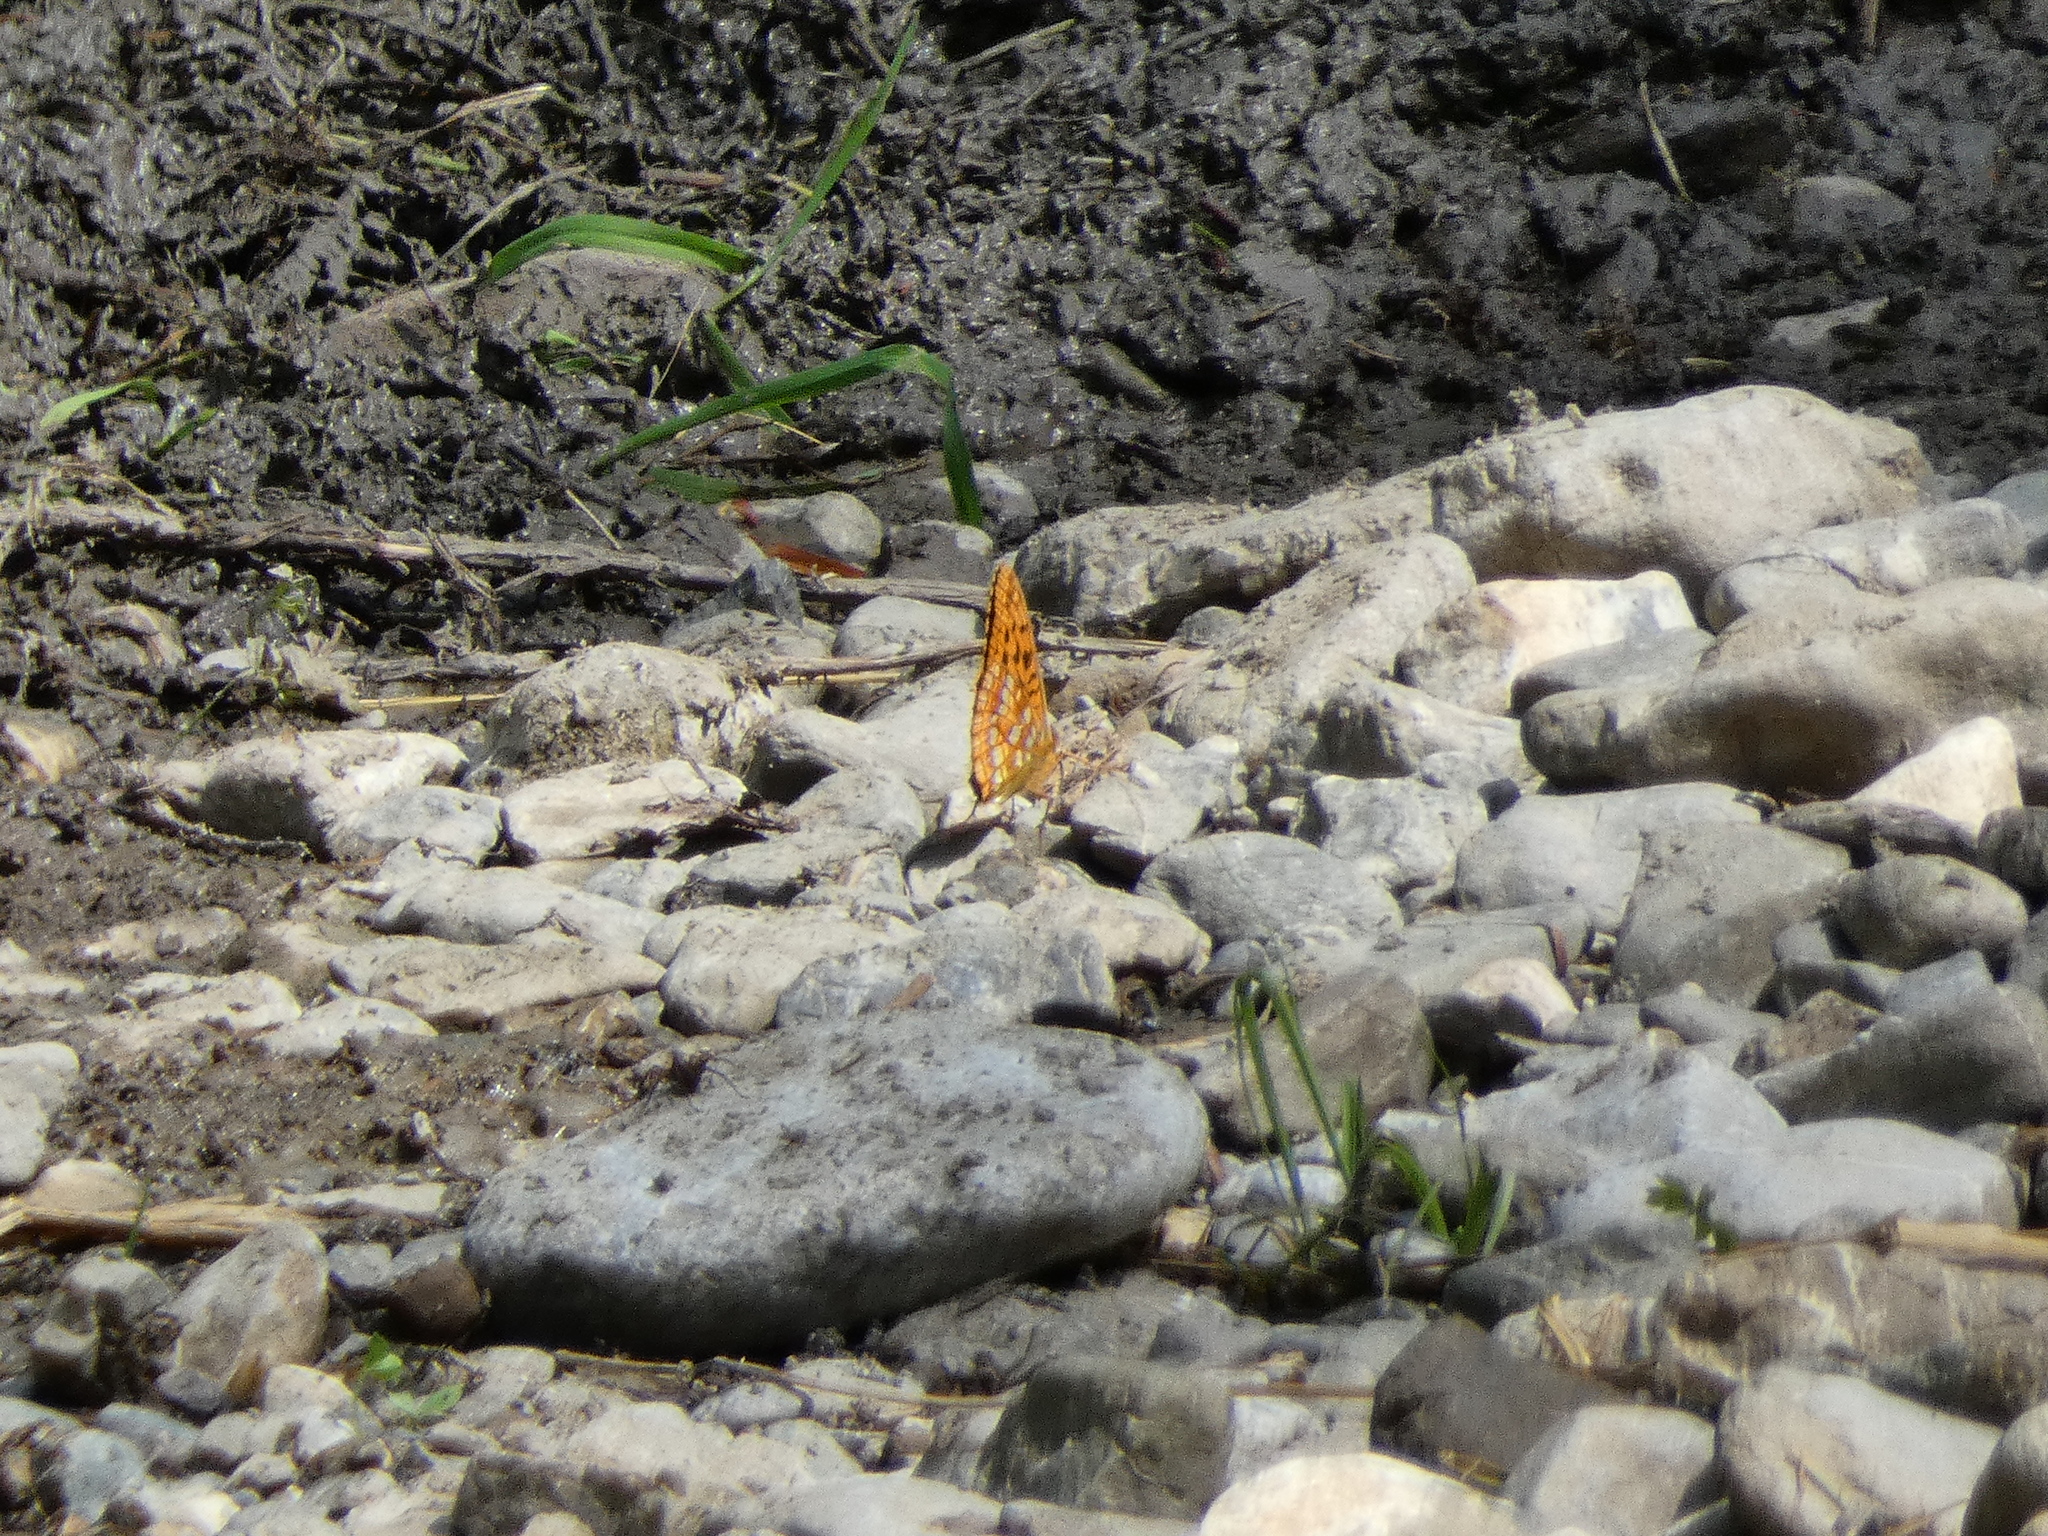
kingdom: Animalia
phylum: Arthropoda
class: Insecta
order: Lepidoptera
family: Nymphalidae
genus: Fabriciana
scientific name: Fabriciana adippe
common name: High brown fritillary
